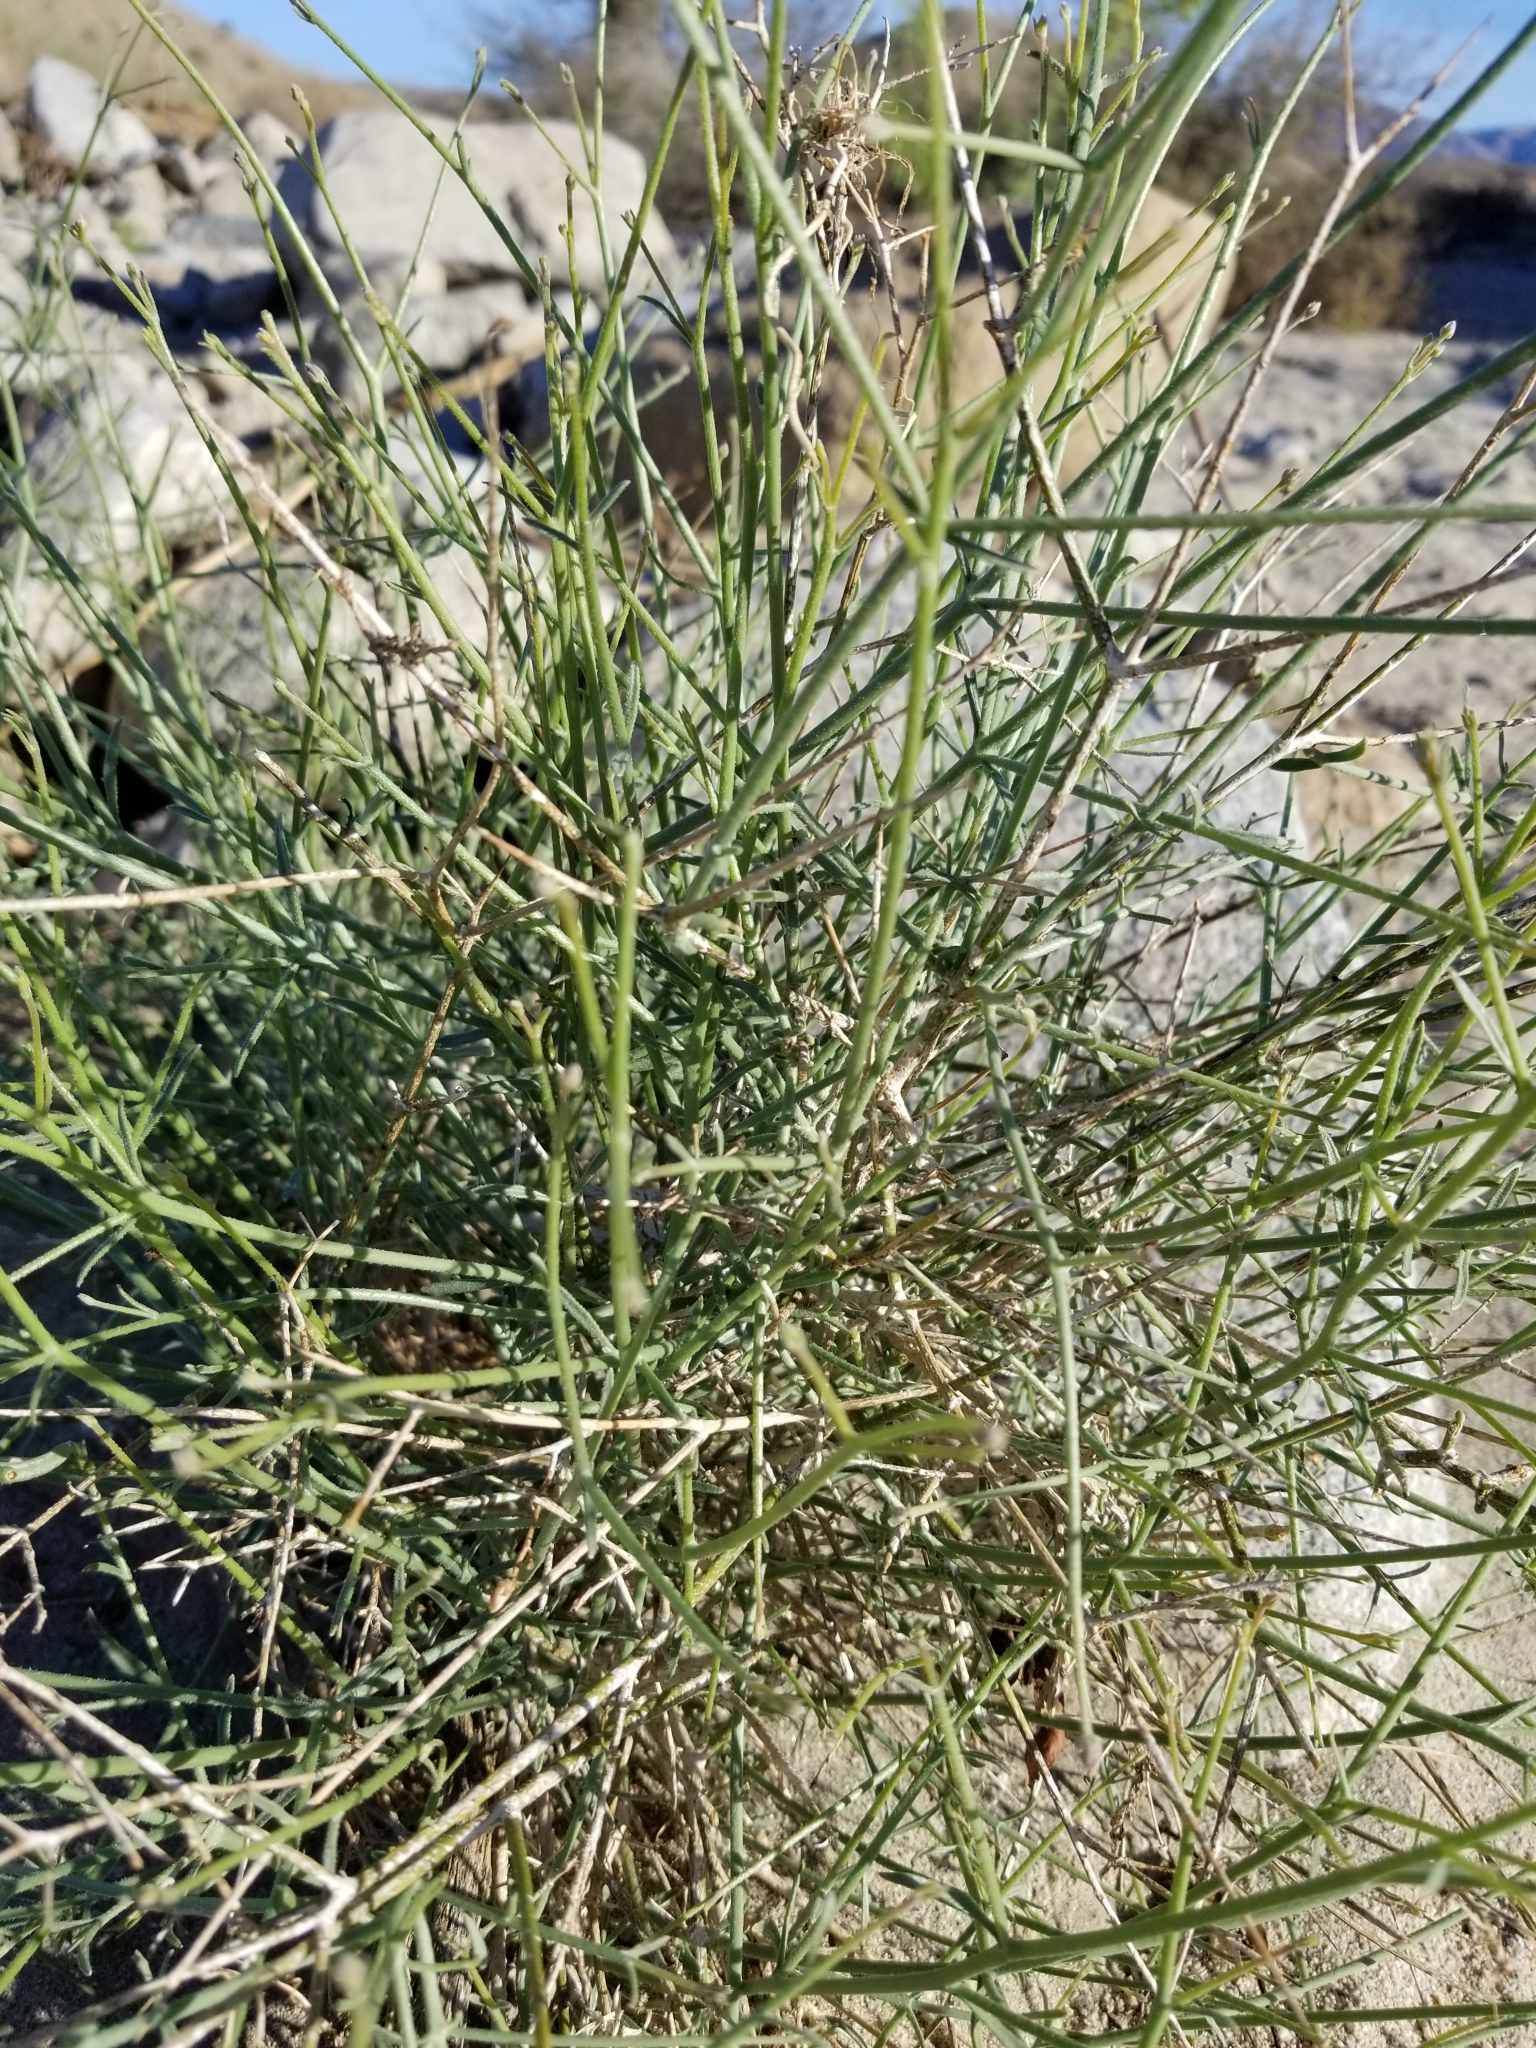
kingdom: Plantae
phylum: Tracheophyta
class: Magnoliopsida
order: Asterales
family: Asteraceae
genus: Bebbia
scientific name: Bebbia juncea
